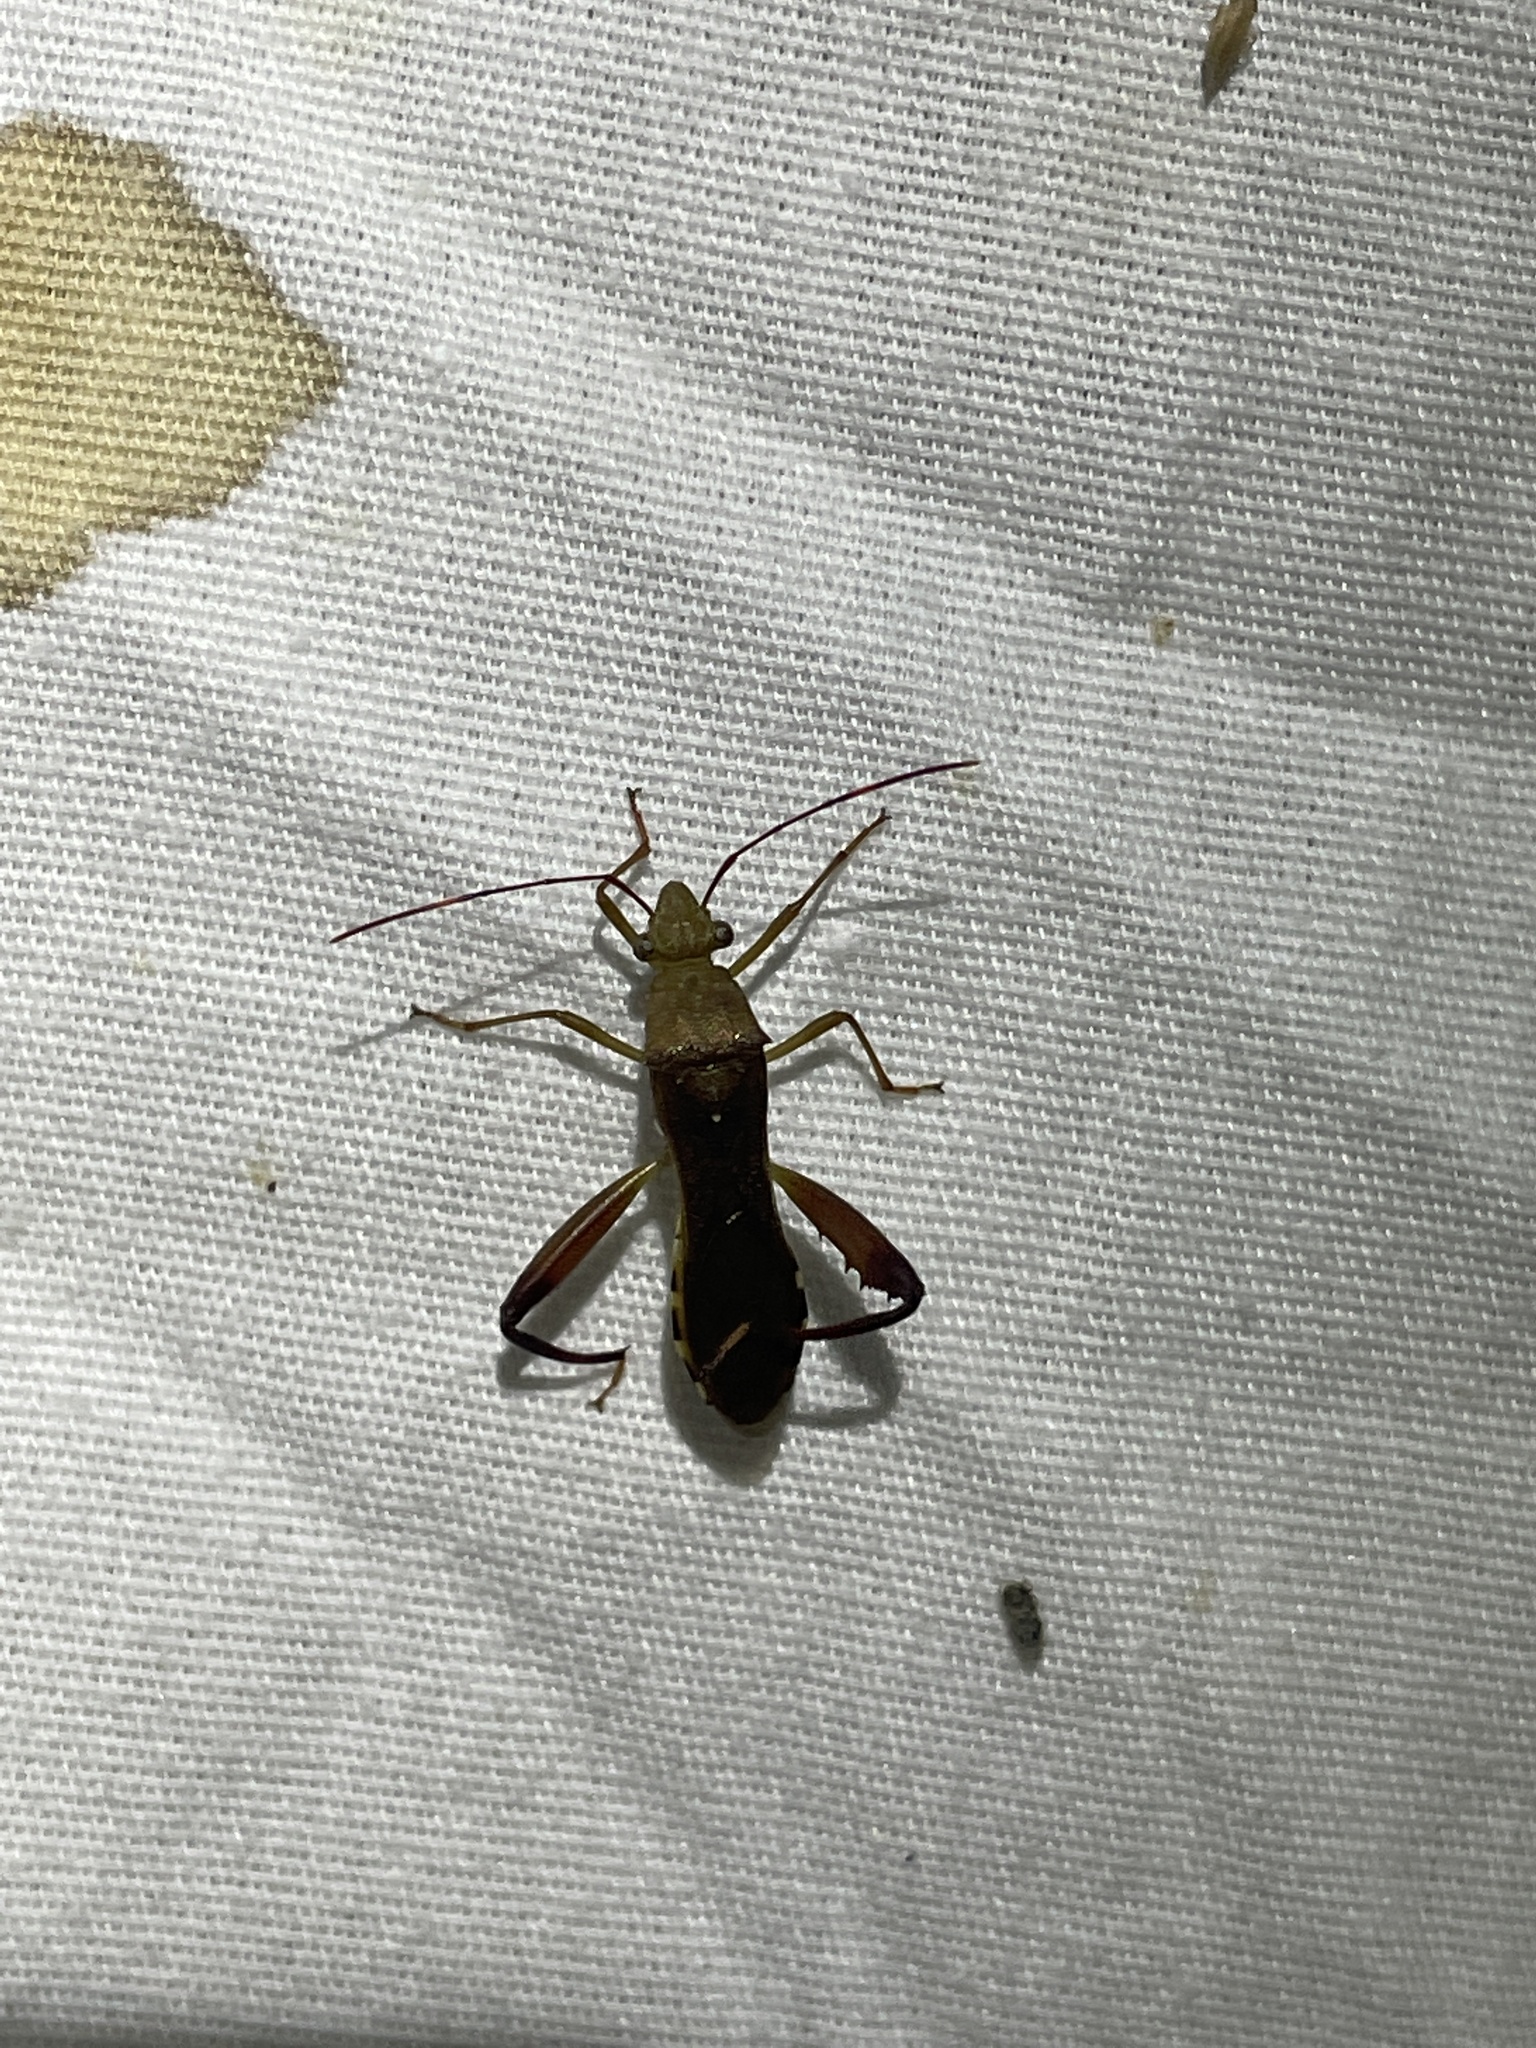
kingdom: Animalia
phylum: Arthropoda
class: Insecta
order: Hemiptera
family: Alydidae
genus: Hyalymenus
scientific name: Hyalymenus tarsatus
